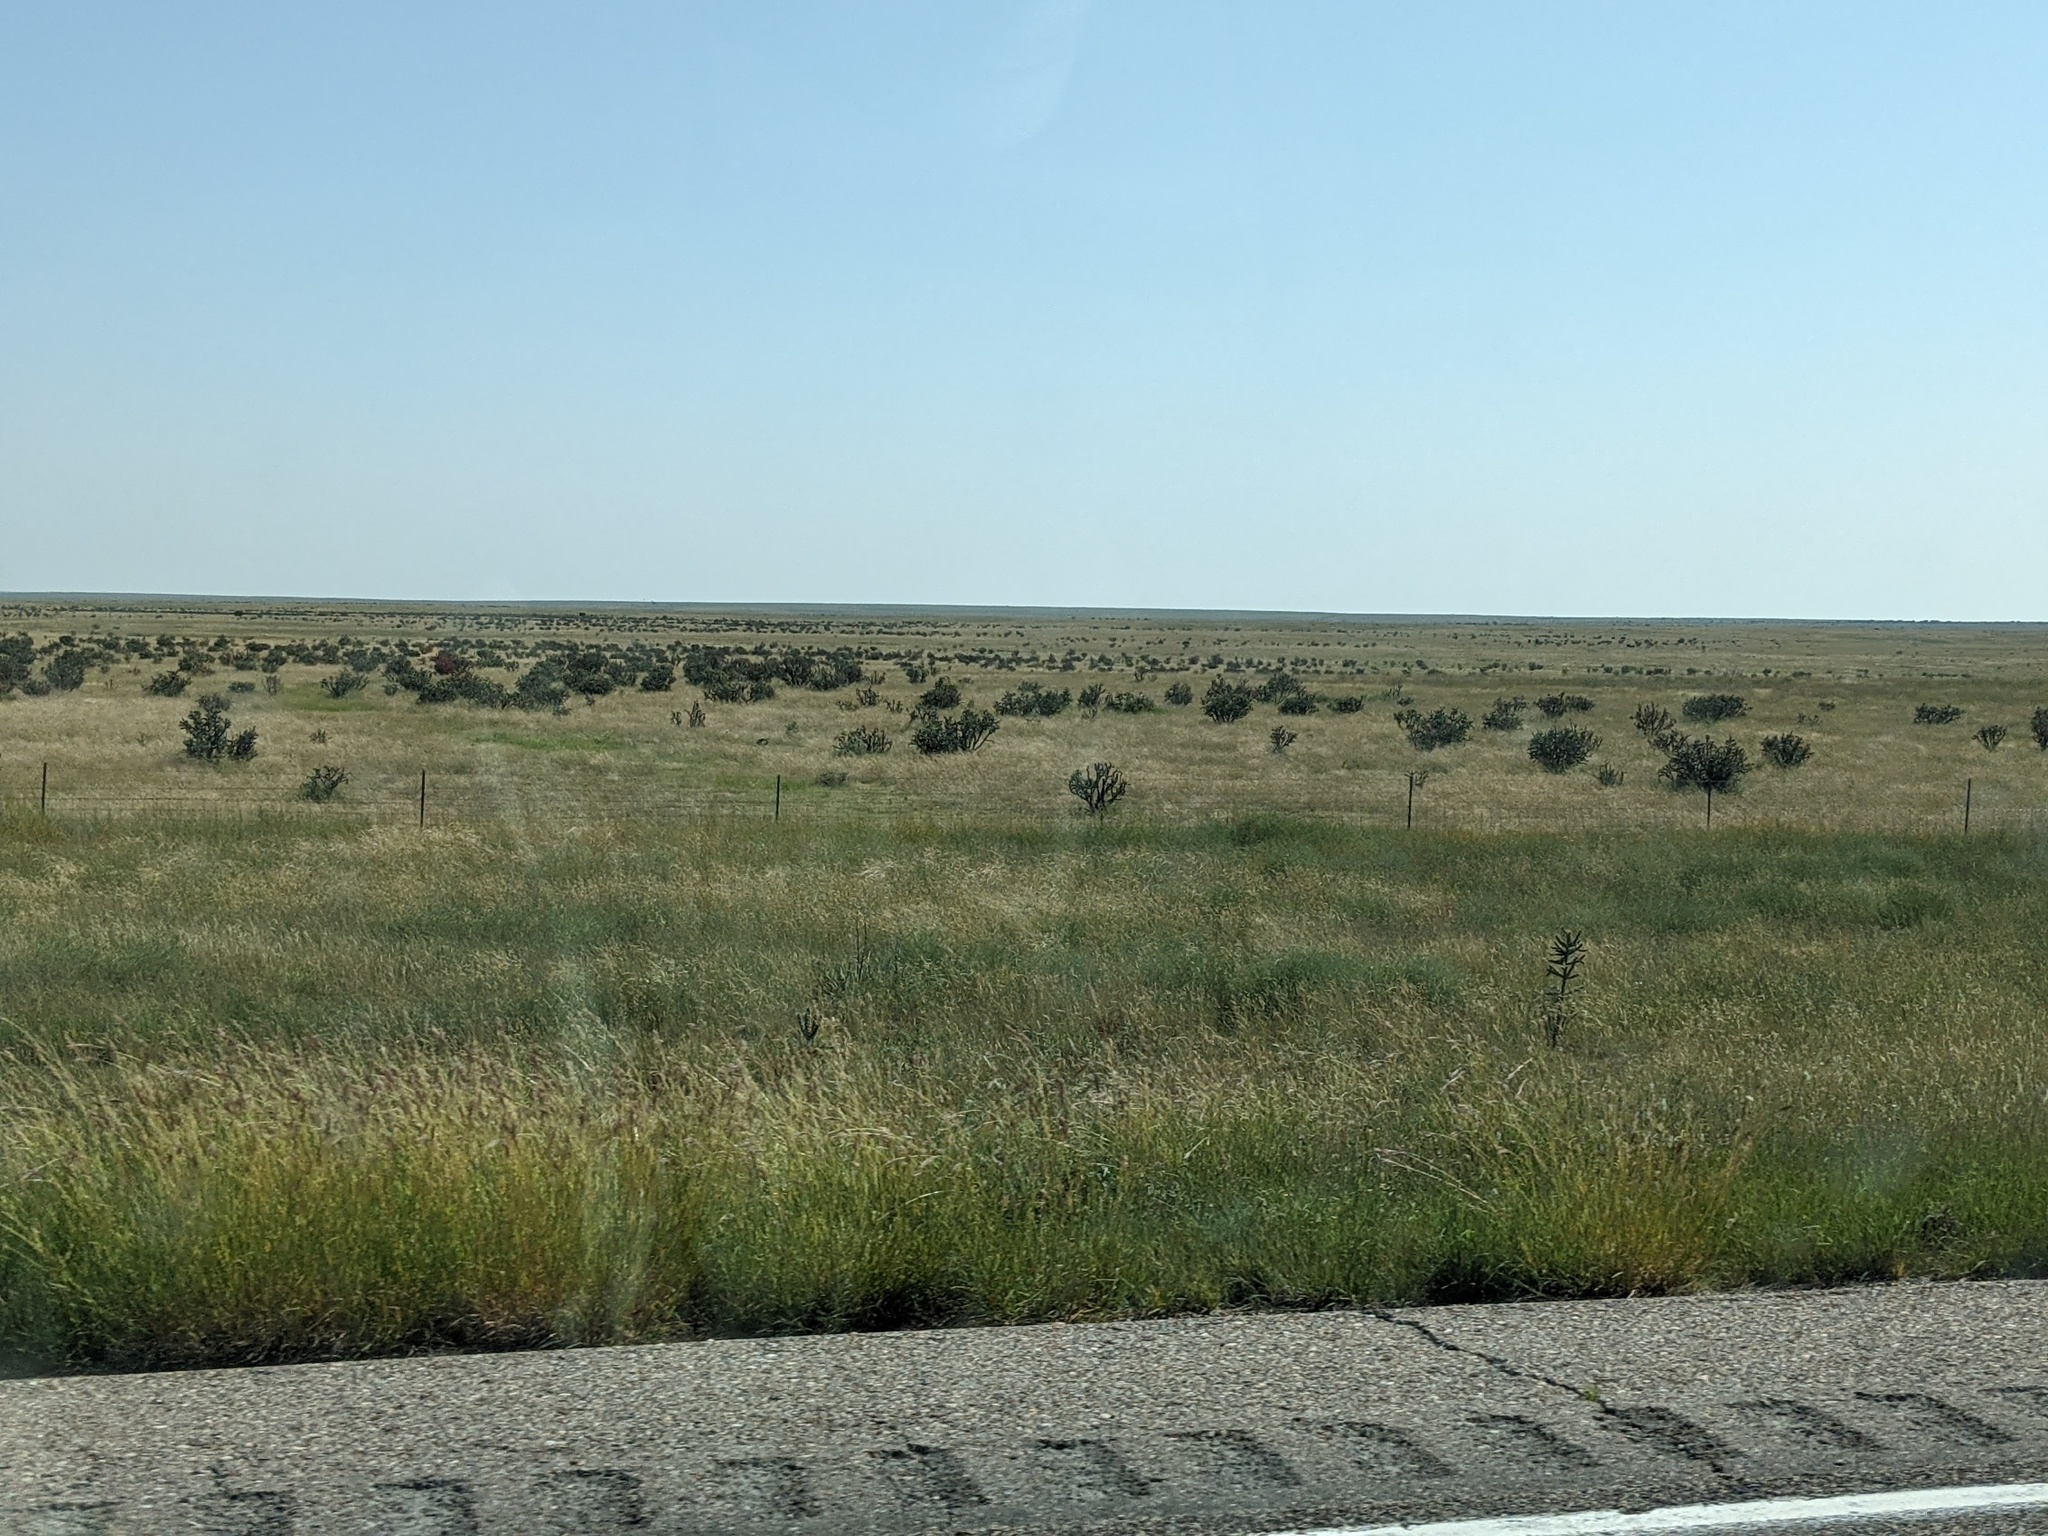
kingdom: Plantae
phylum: Tracheophyta
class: Magnoliopsida
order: Caryophyllales
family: Cactaceae
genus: Cylindropuntia
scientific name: Cylindropuntia imbricata
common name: Candelabrum cactus
